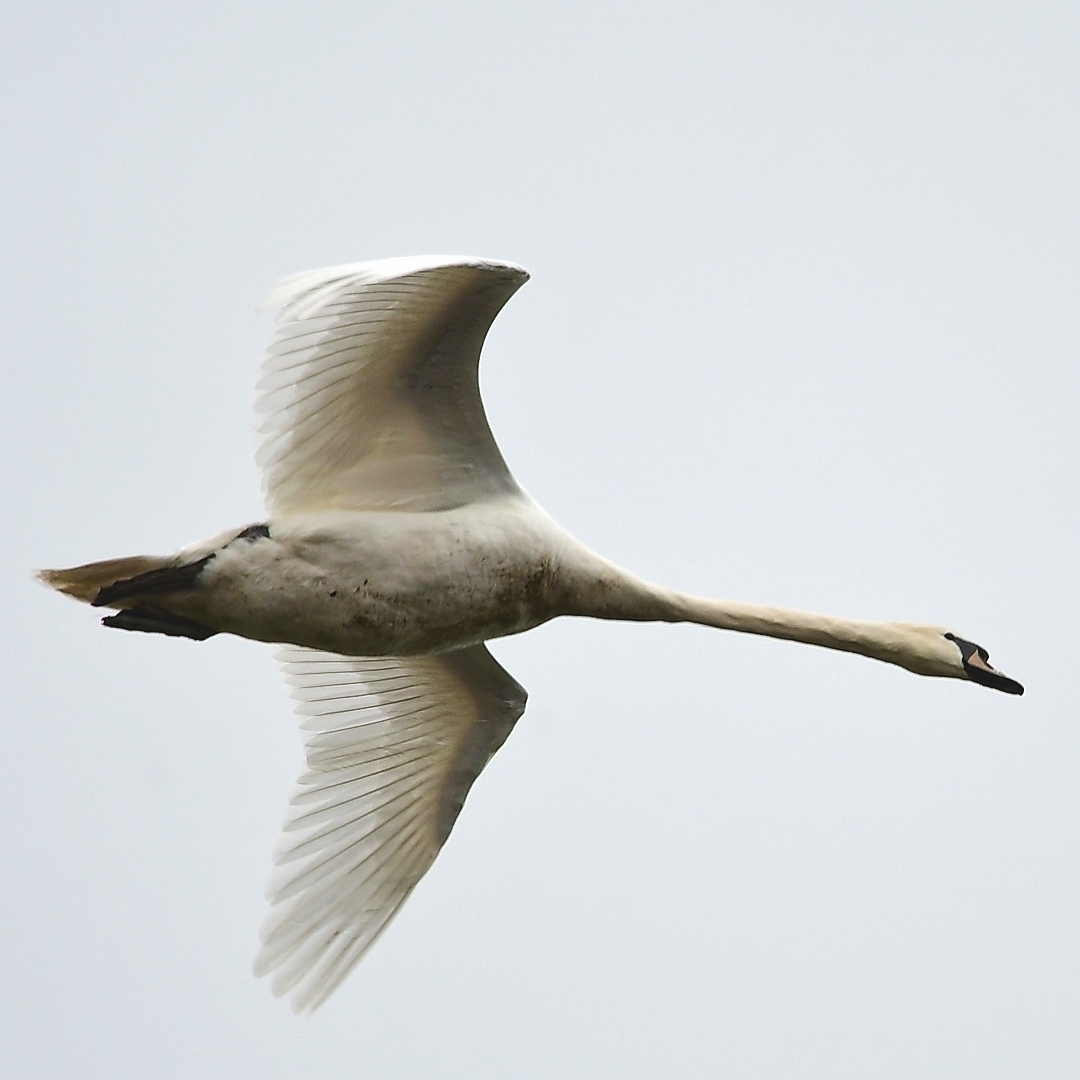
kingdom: Animalia
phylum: Chordata
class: Aves
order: Anseriformes
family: Anatidae
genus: Cygnus
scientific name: Cygnus olor
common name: Mute swan
